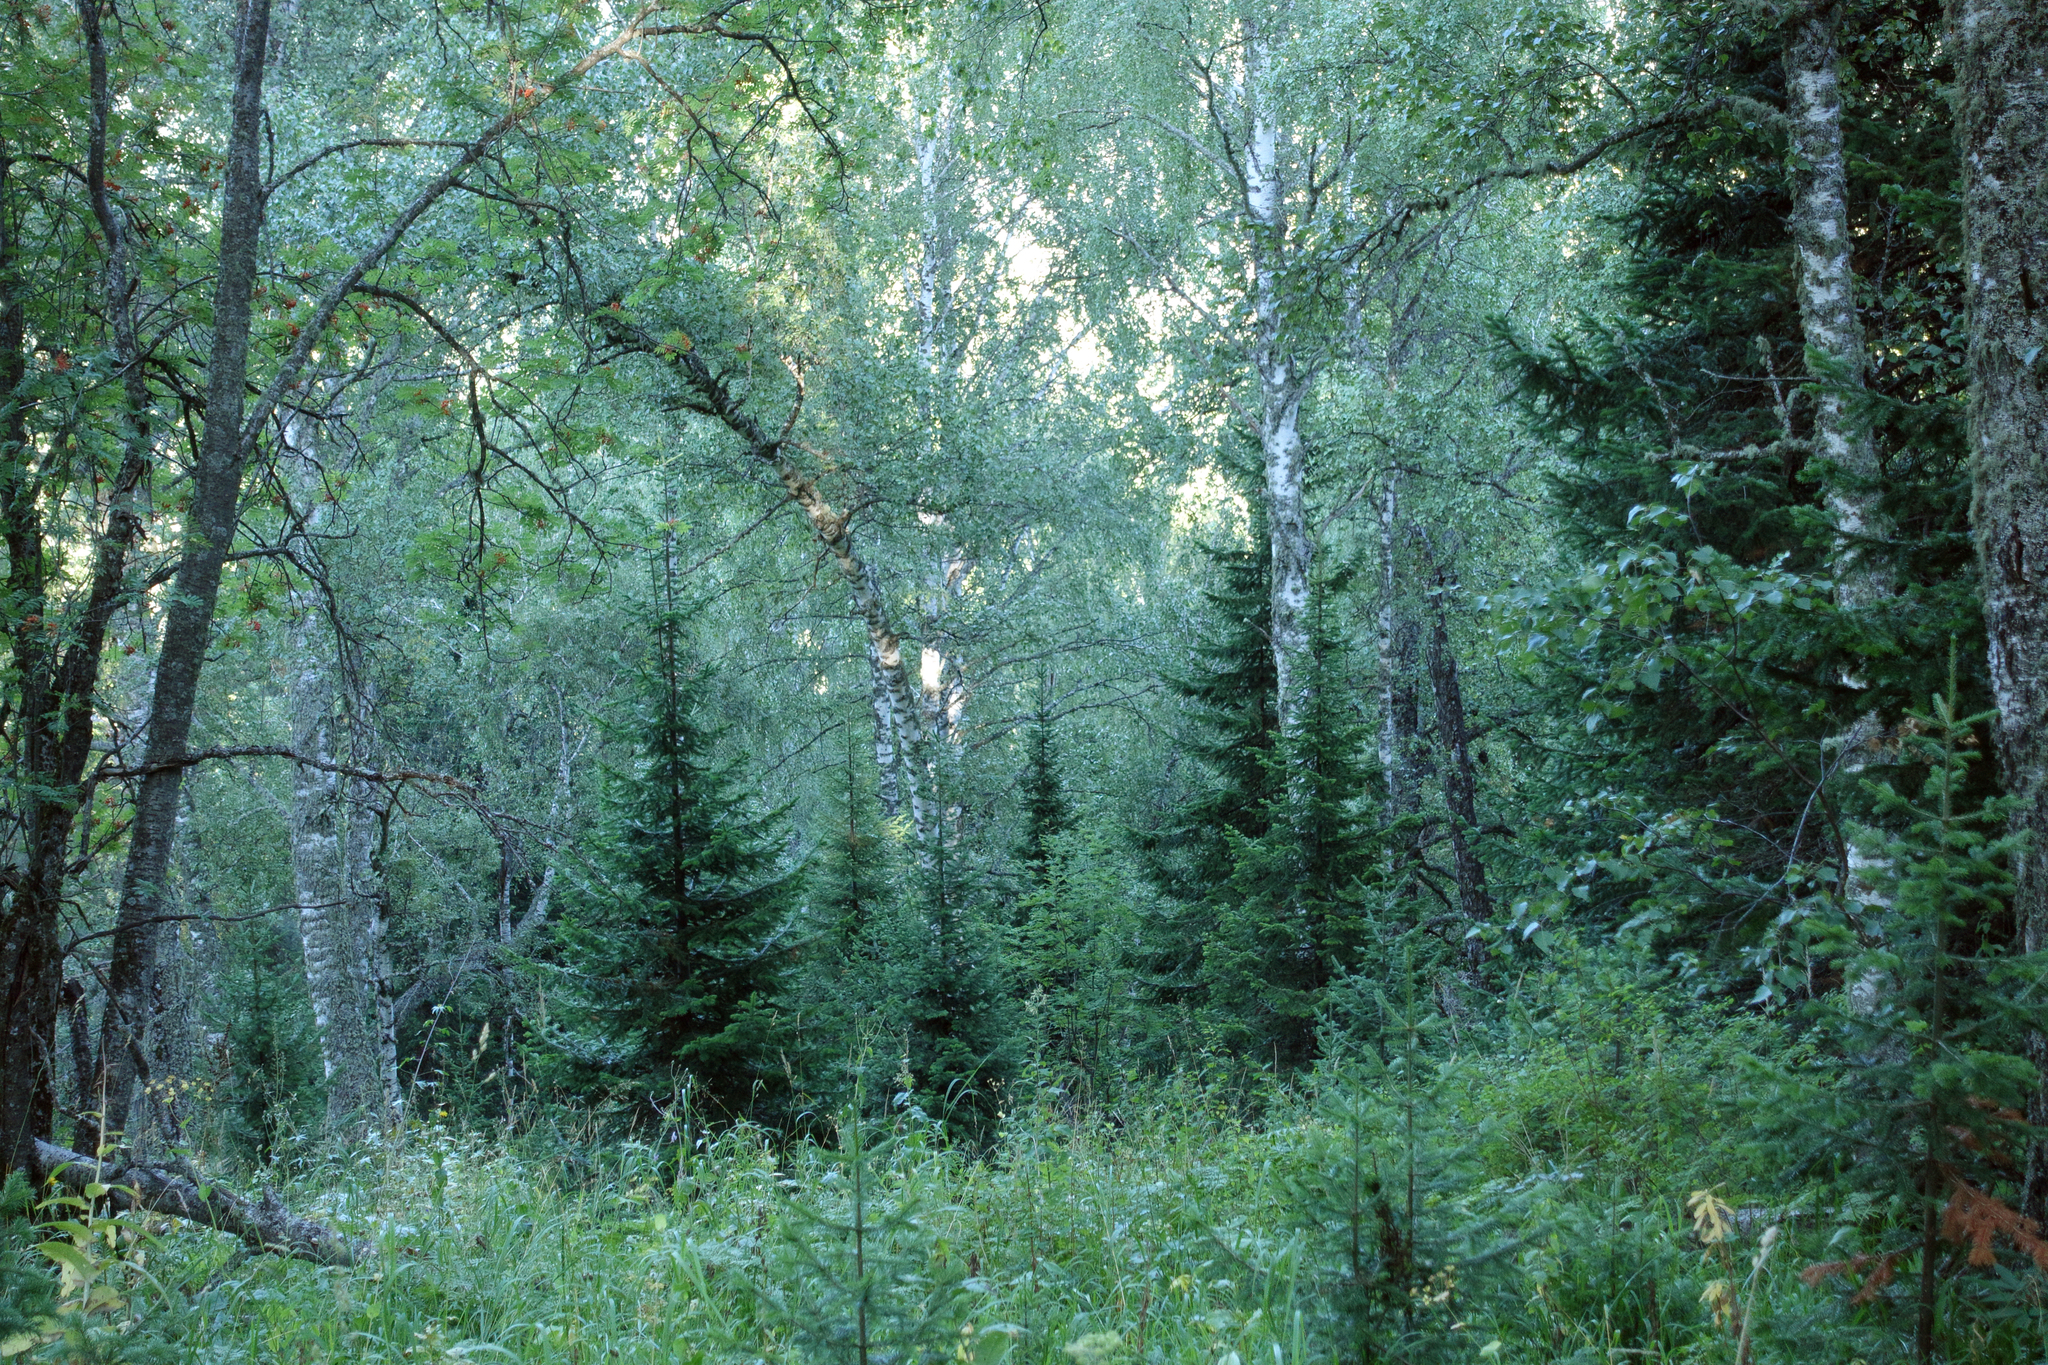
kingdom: Plantae
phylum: Tracheophyta
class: Pinopsida
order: Pinales
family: Pinaceae
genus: Abies
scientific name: Abies sibirica
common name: Siberian fir
